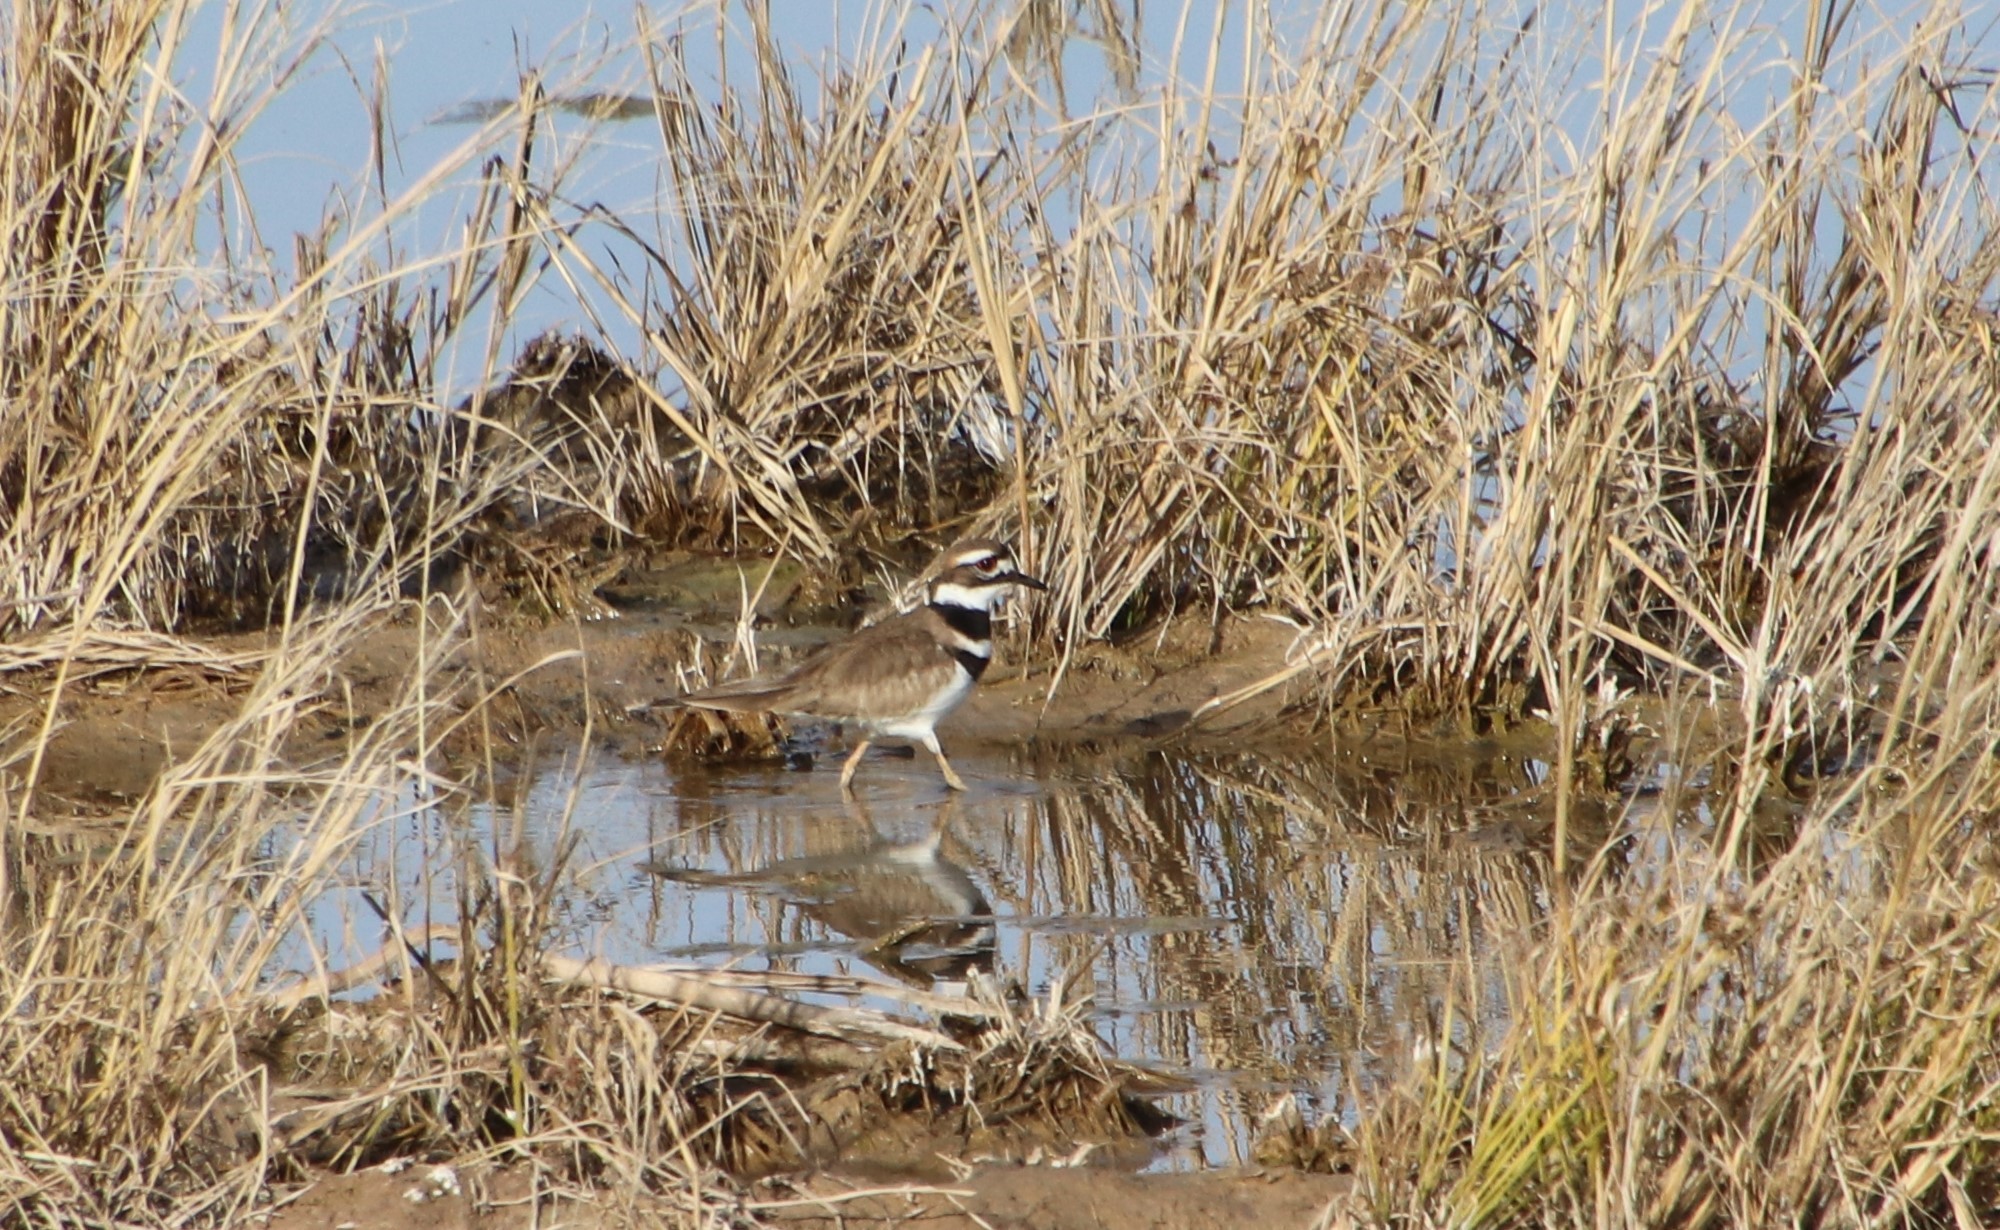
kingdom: Animalia
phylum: Chordata
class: Aves
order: Charadriiformes
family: Charadriidae
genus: Charadrius
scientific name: Charadrius vociferus
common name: Killdeer
